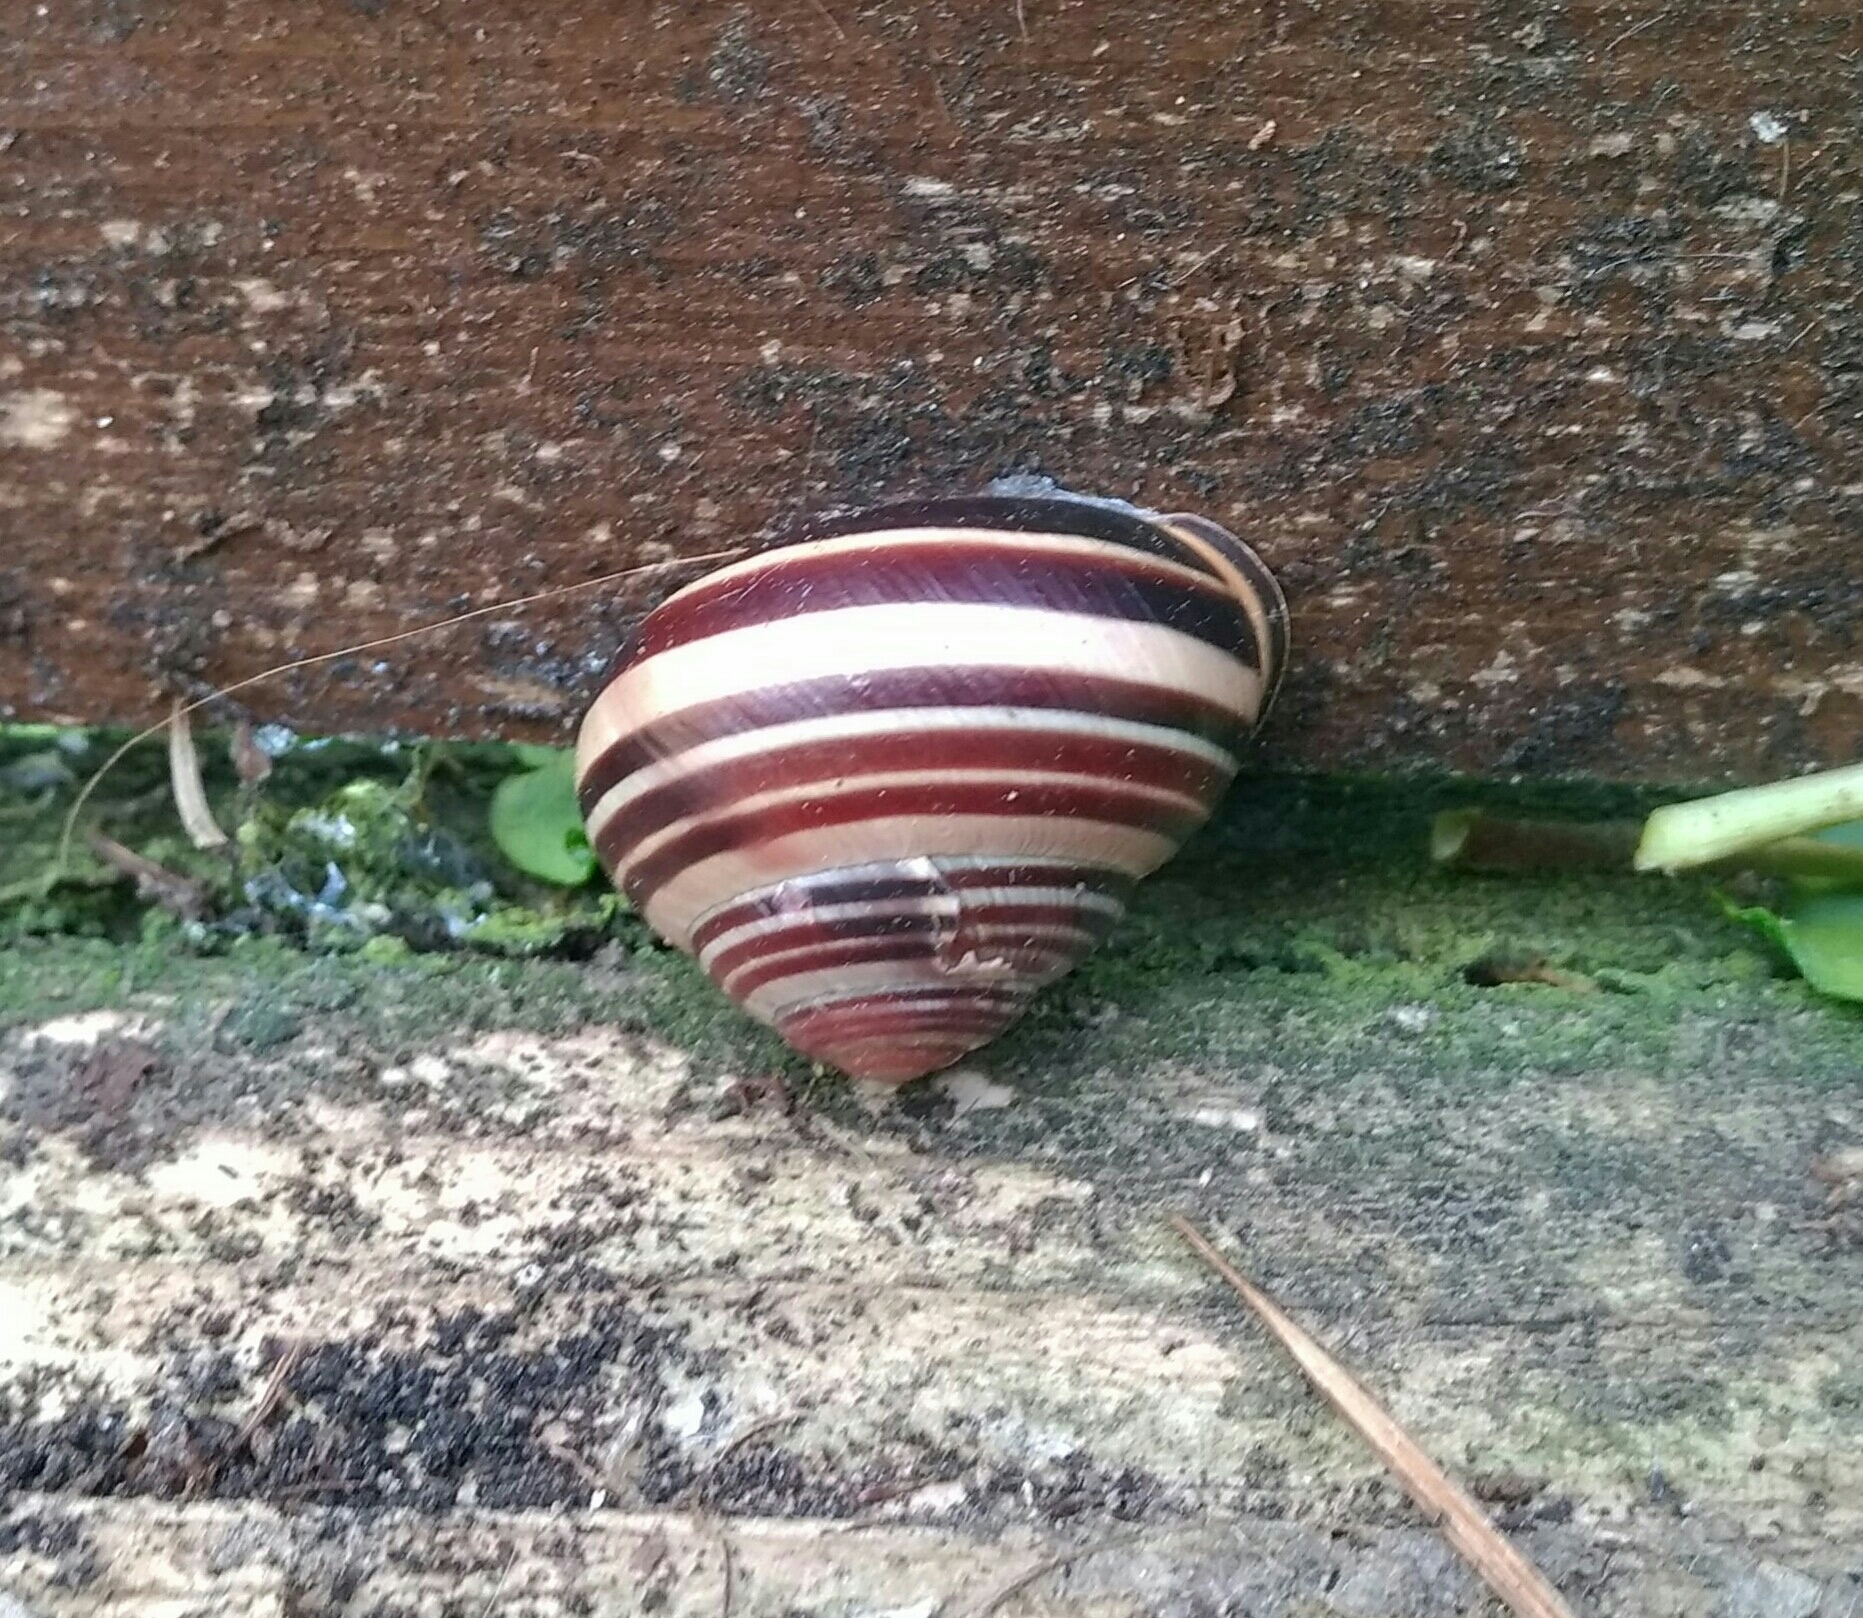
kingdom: Animalia
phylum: Mollusca
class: Gastropoda
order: Stylommatophora
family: Helicidae
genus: Cepaea
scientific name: Cepaea nemoralis
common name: Grovesnail
